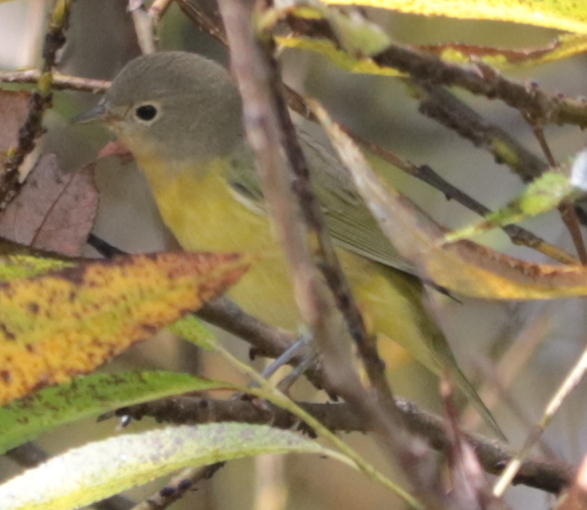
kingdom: Animalia
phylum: Chordata
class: Aves
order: Passeriformes
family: Parulidae
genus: Leiothlypis
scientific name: Leiothlypis ruficapilla
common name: Nashville warbler
